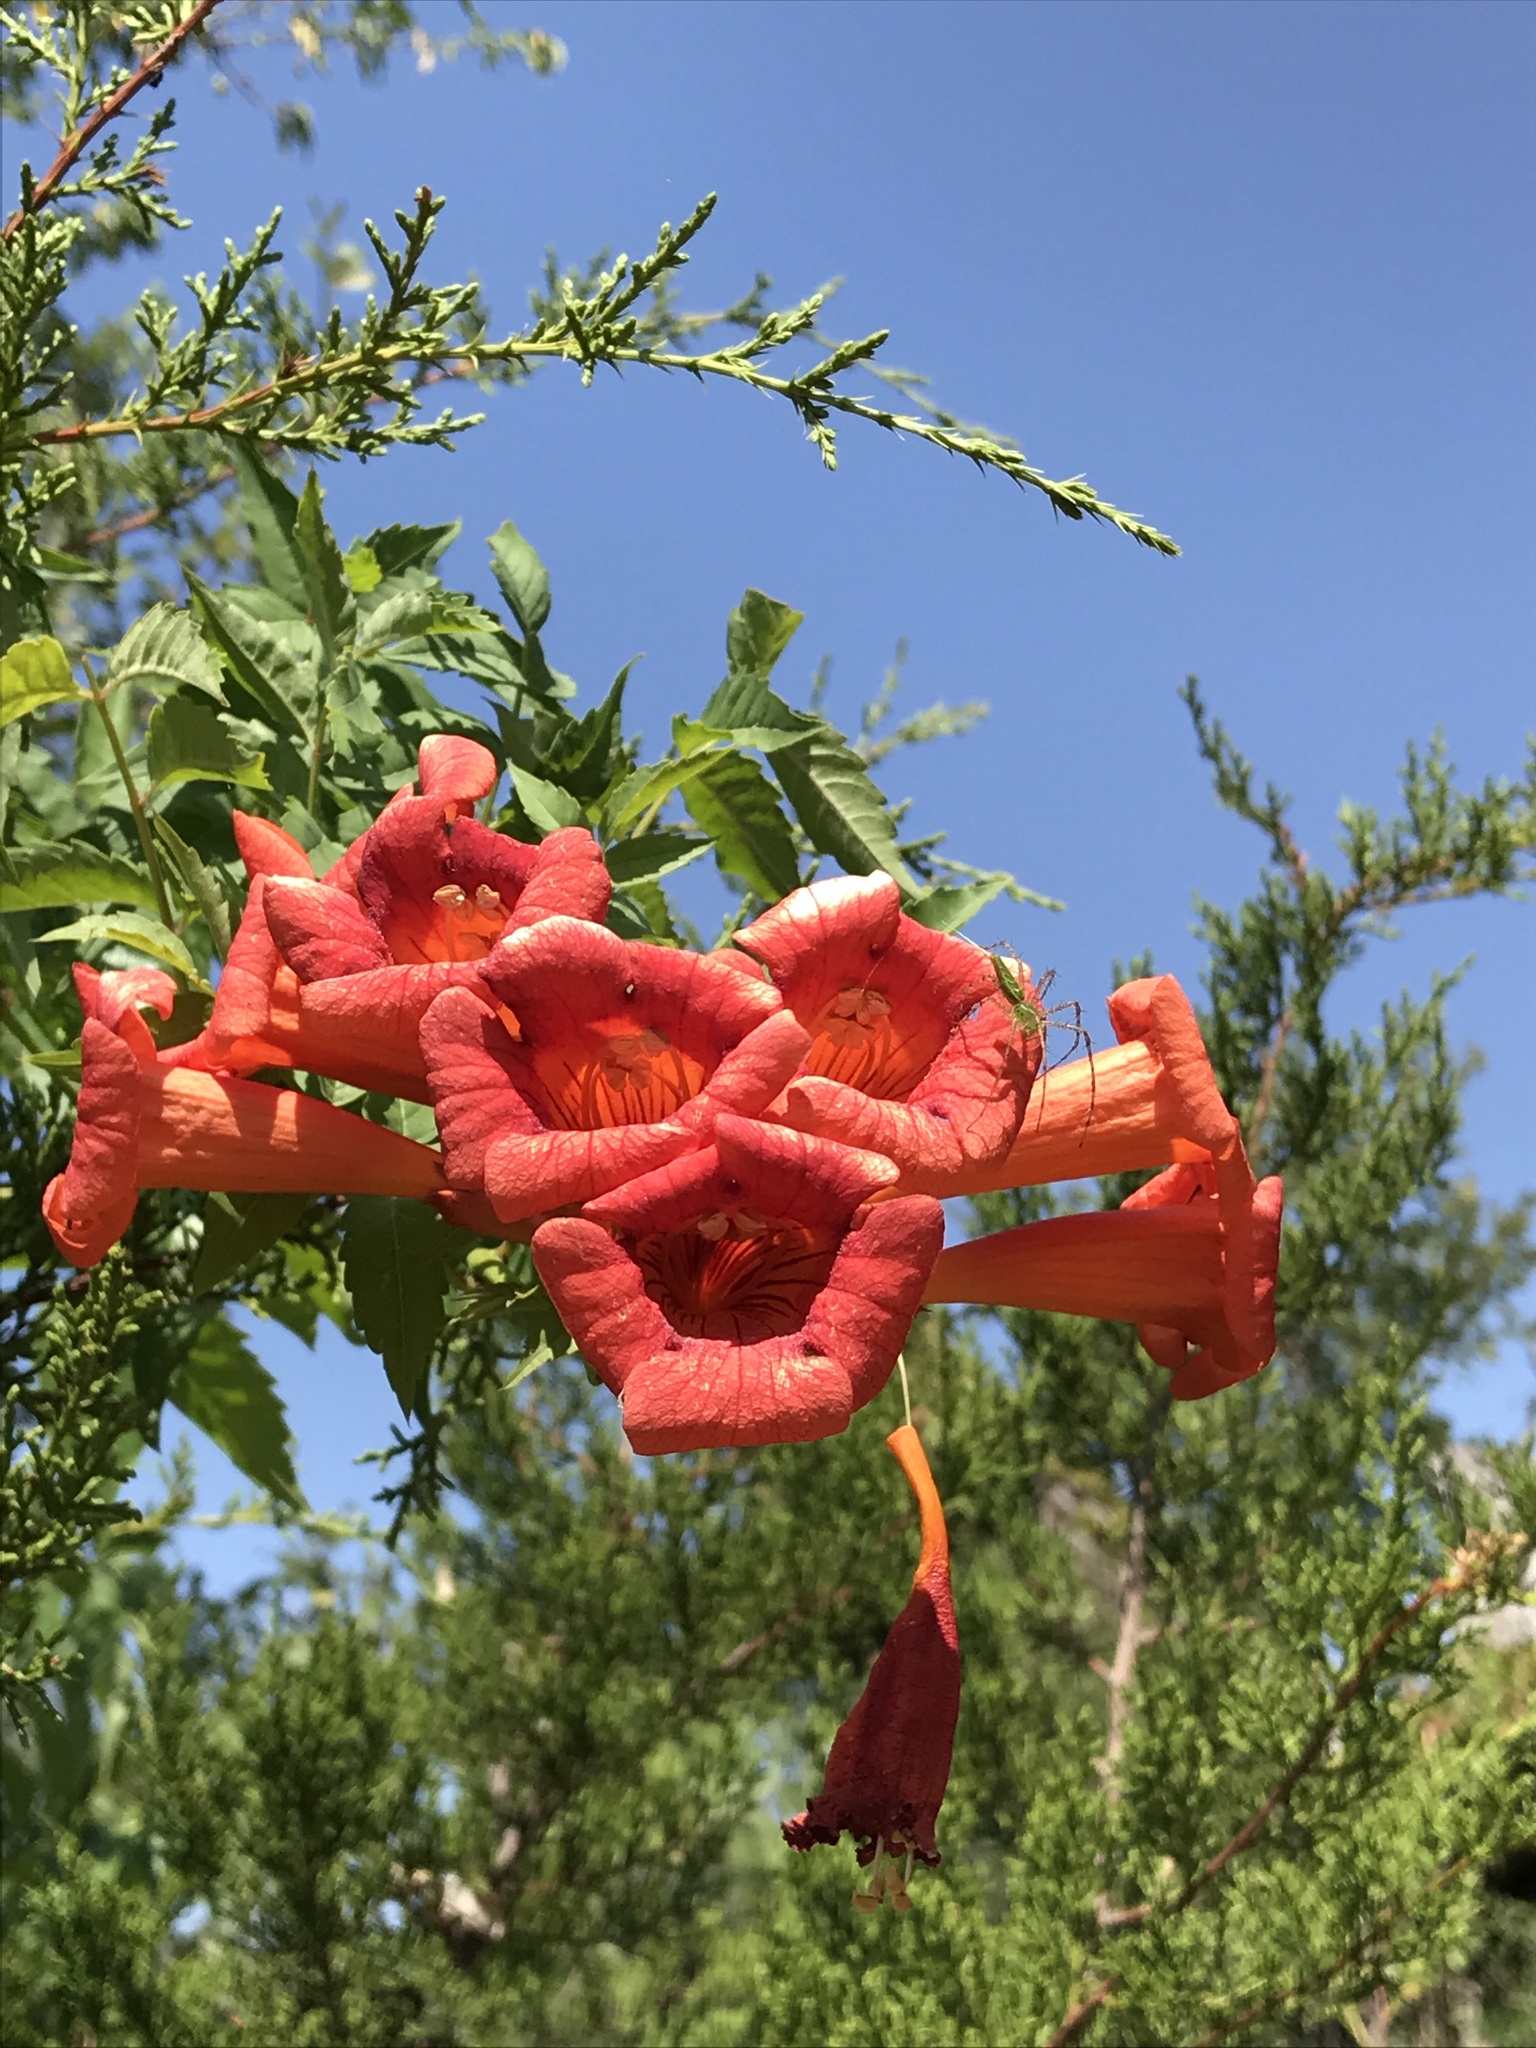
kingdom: Plantae
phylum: Tracheophyta
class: Magnoliopsida
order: Lamiales
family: Bignoniaceae
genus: Campsis
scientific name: Campsis radicans
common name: Trumpet-creeper
